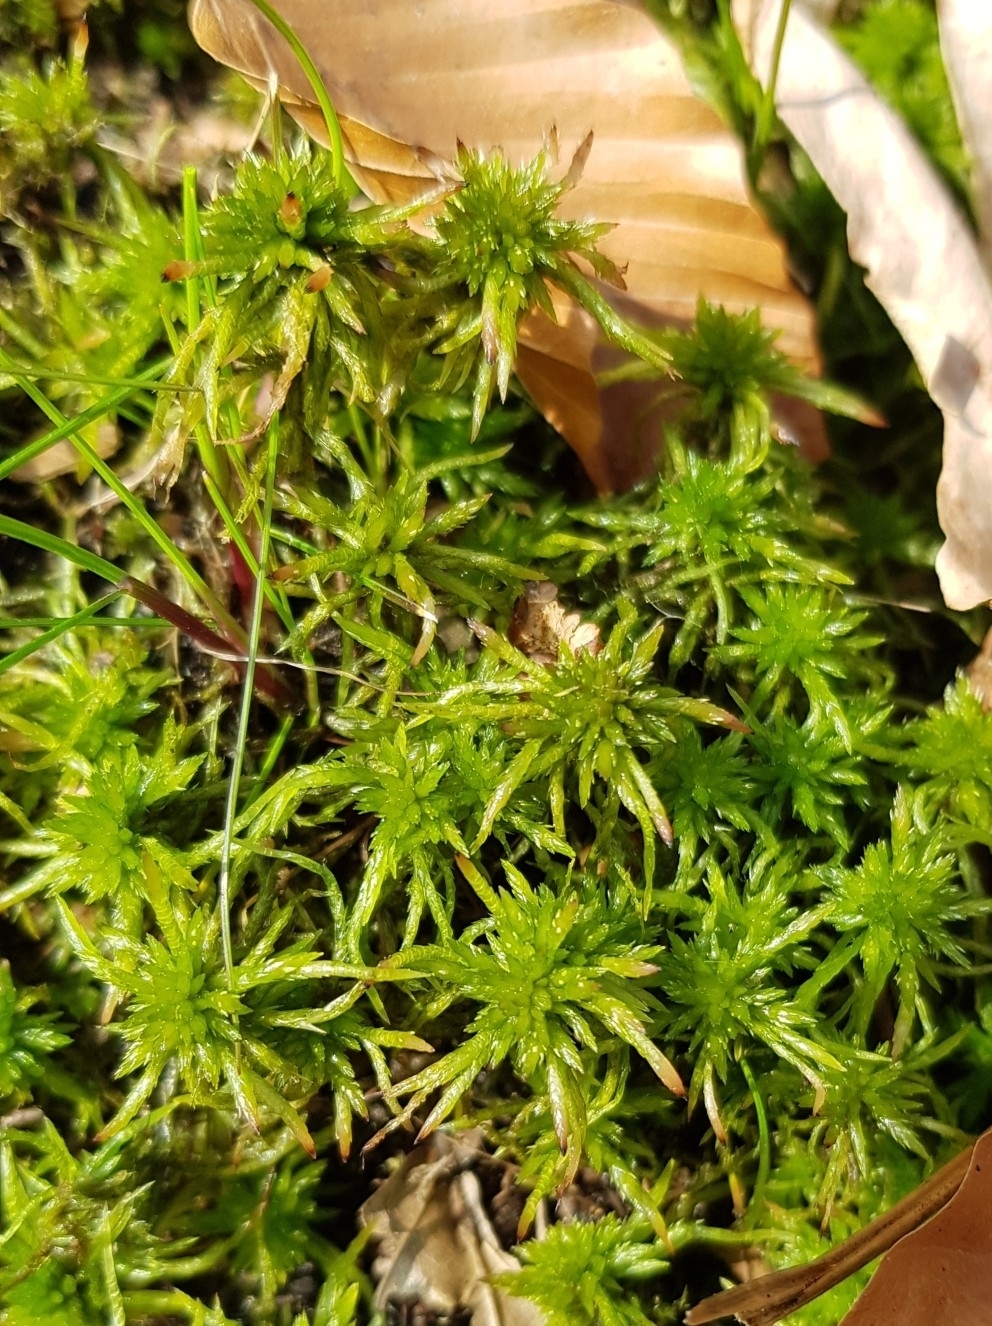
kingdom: Plantae
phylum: Bryophyta
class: Sphagnopsida
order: Sphagnales
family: Sphagnaceae
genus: Sphagnum
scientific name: Sphagnum fimbriatum
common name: Fringed peat moss
